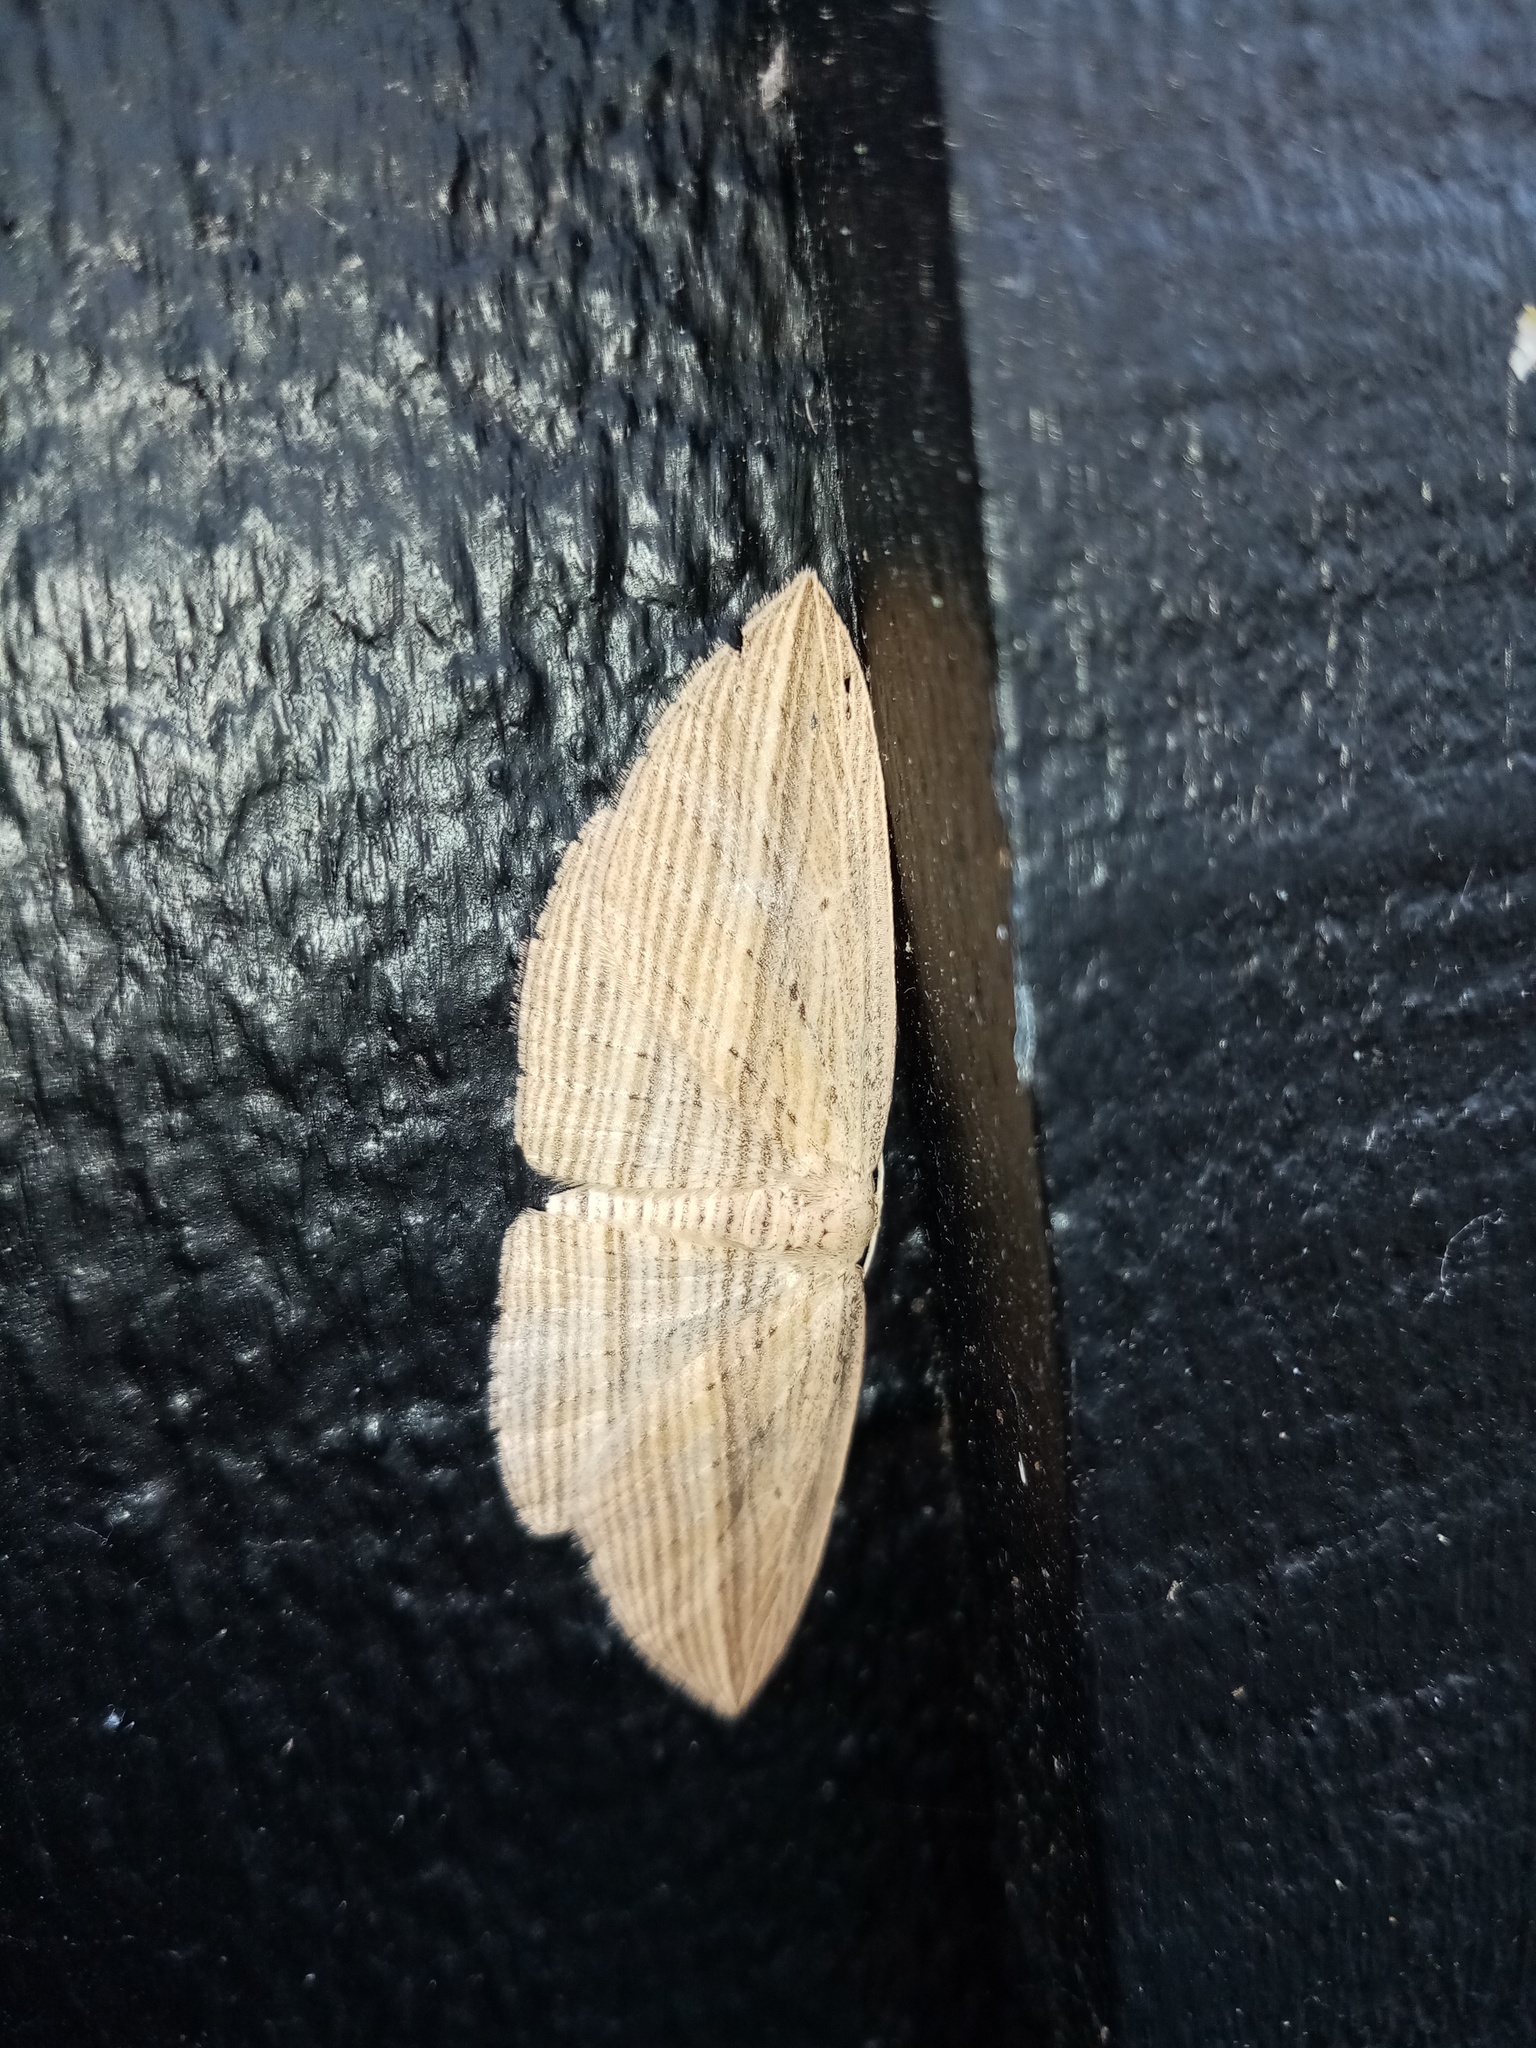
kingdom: Animalia
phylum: Arthropoda
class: Insecta
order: Lepidoptera
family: Geometridae
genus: Epiphryne
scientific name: Epiphryne verriculata
